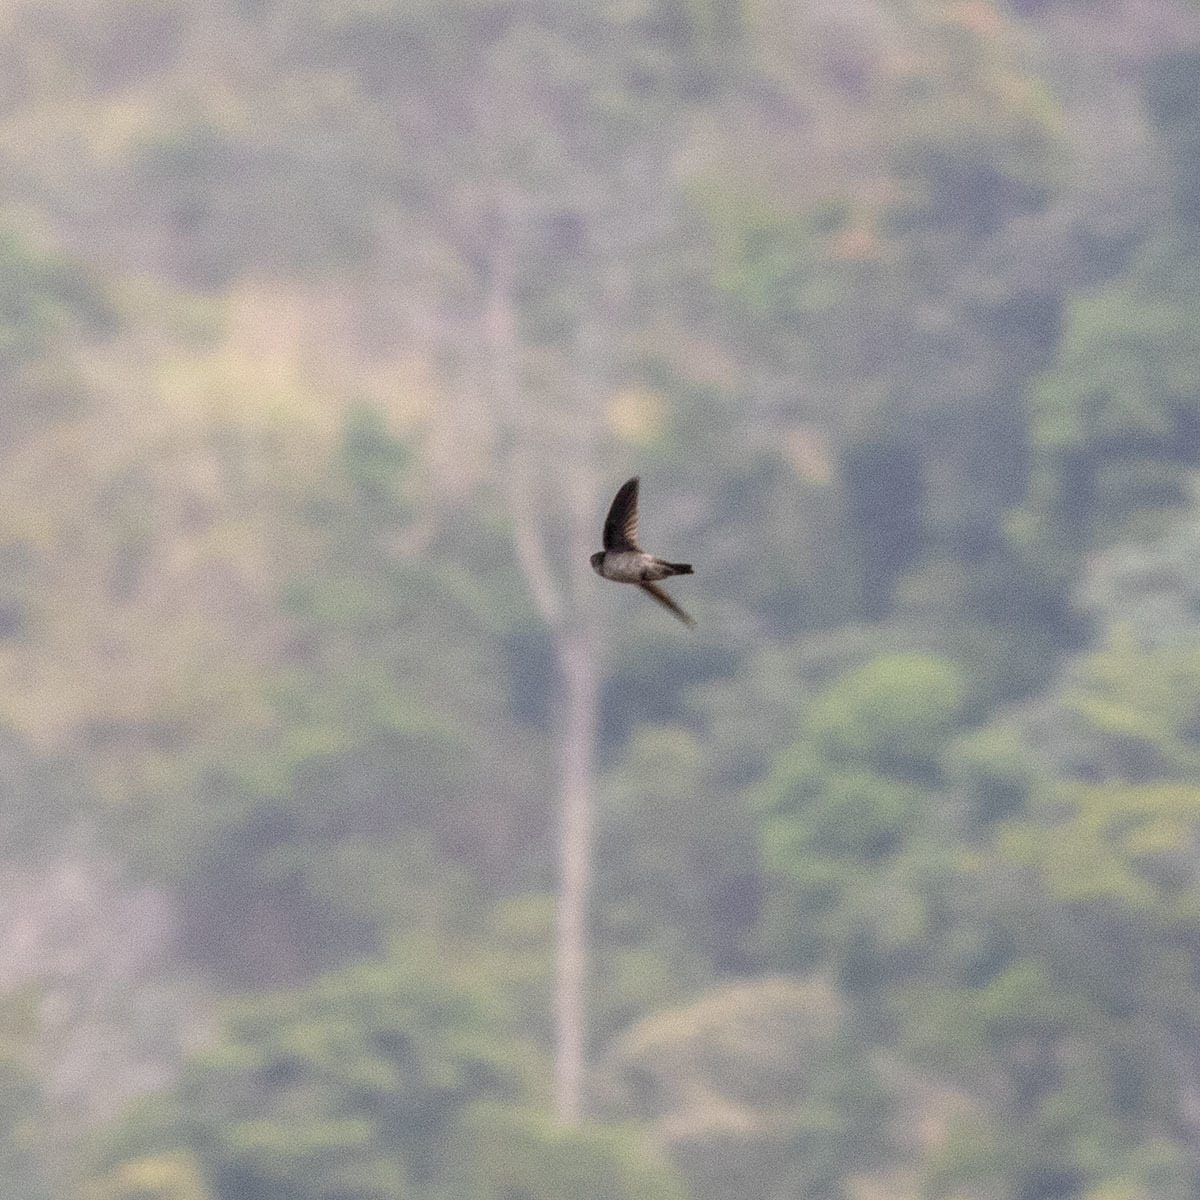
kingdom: Animalia
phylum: Chordata
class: Aves
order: Apodiformes
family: Apodidae
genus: Aerodramus
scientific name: Aerodramus unicolor
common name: Indian swiftlet
